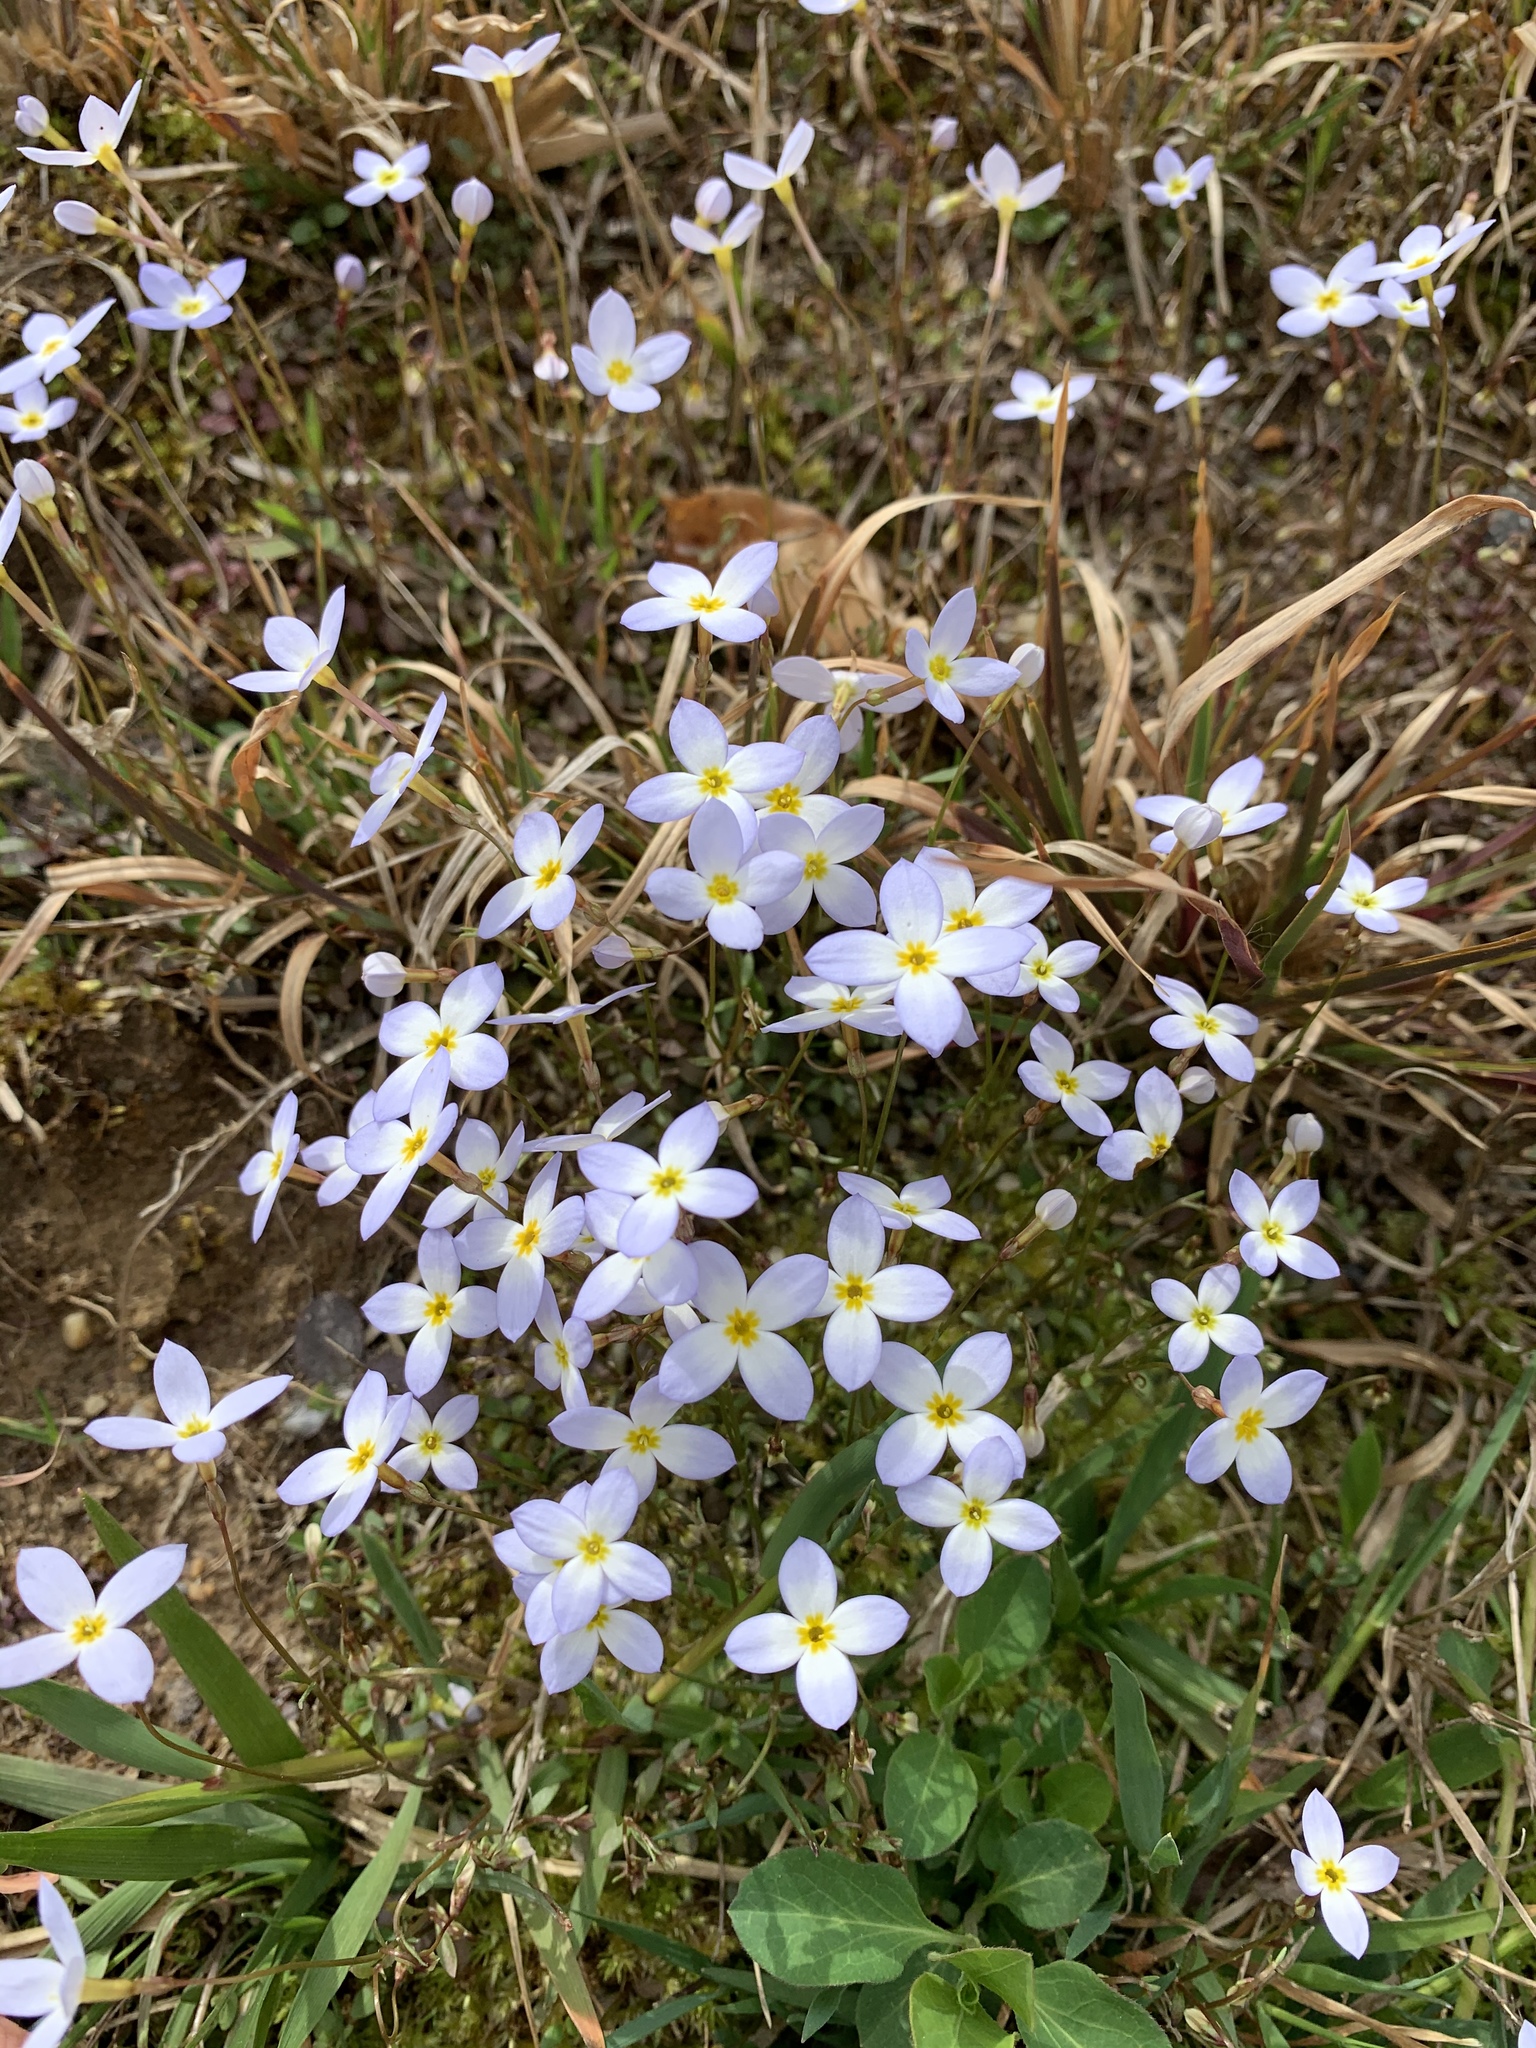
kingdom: Plantae
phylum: Tracheophyta
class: Magnoliopsida
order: Gentianales
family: Rubiaceae
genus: Houstonia
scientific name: Houstonia caerulea
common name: Bluets
